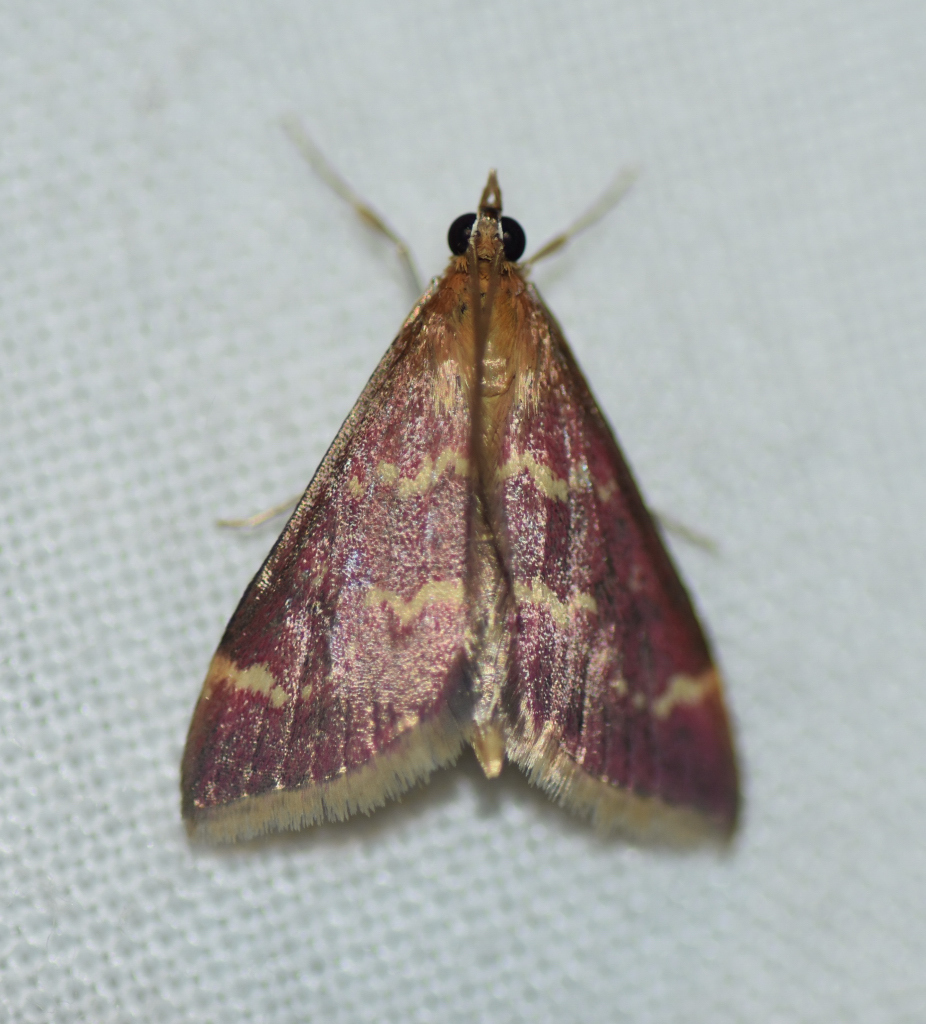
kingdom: Animalia
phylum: Arthropoda
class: Insecta
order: Lepidoptera
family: Crambidae
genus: Pyrausta
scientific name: Pyrausta signatalis
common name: Raspberry pyrausta moth
